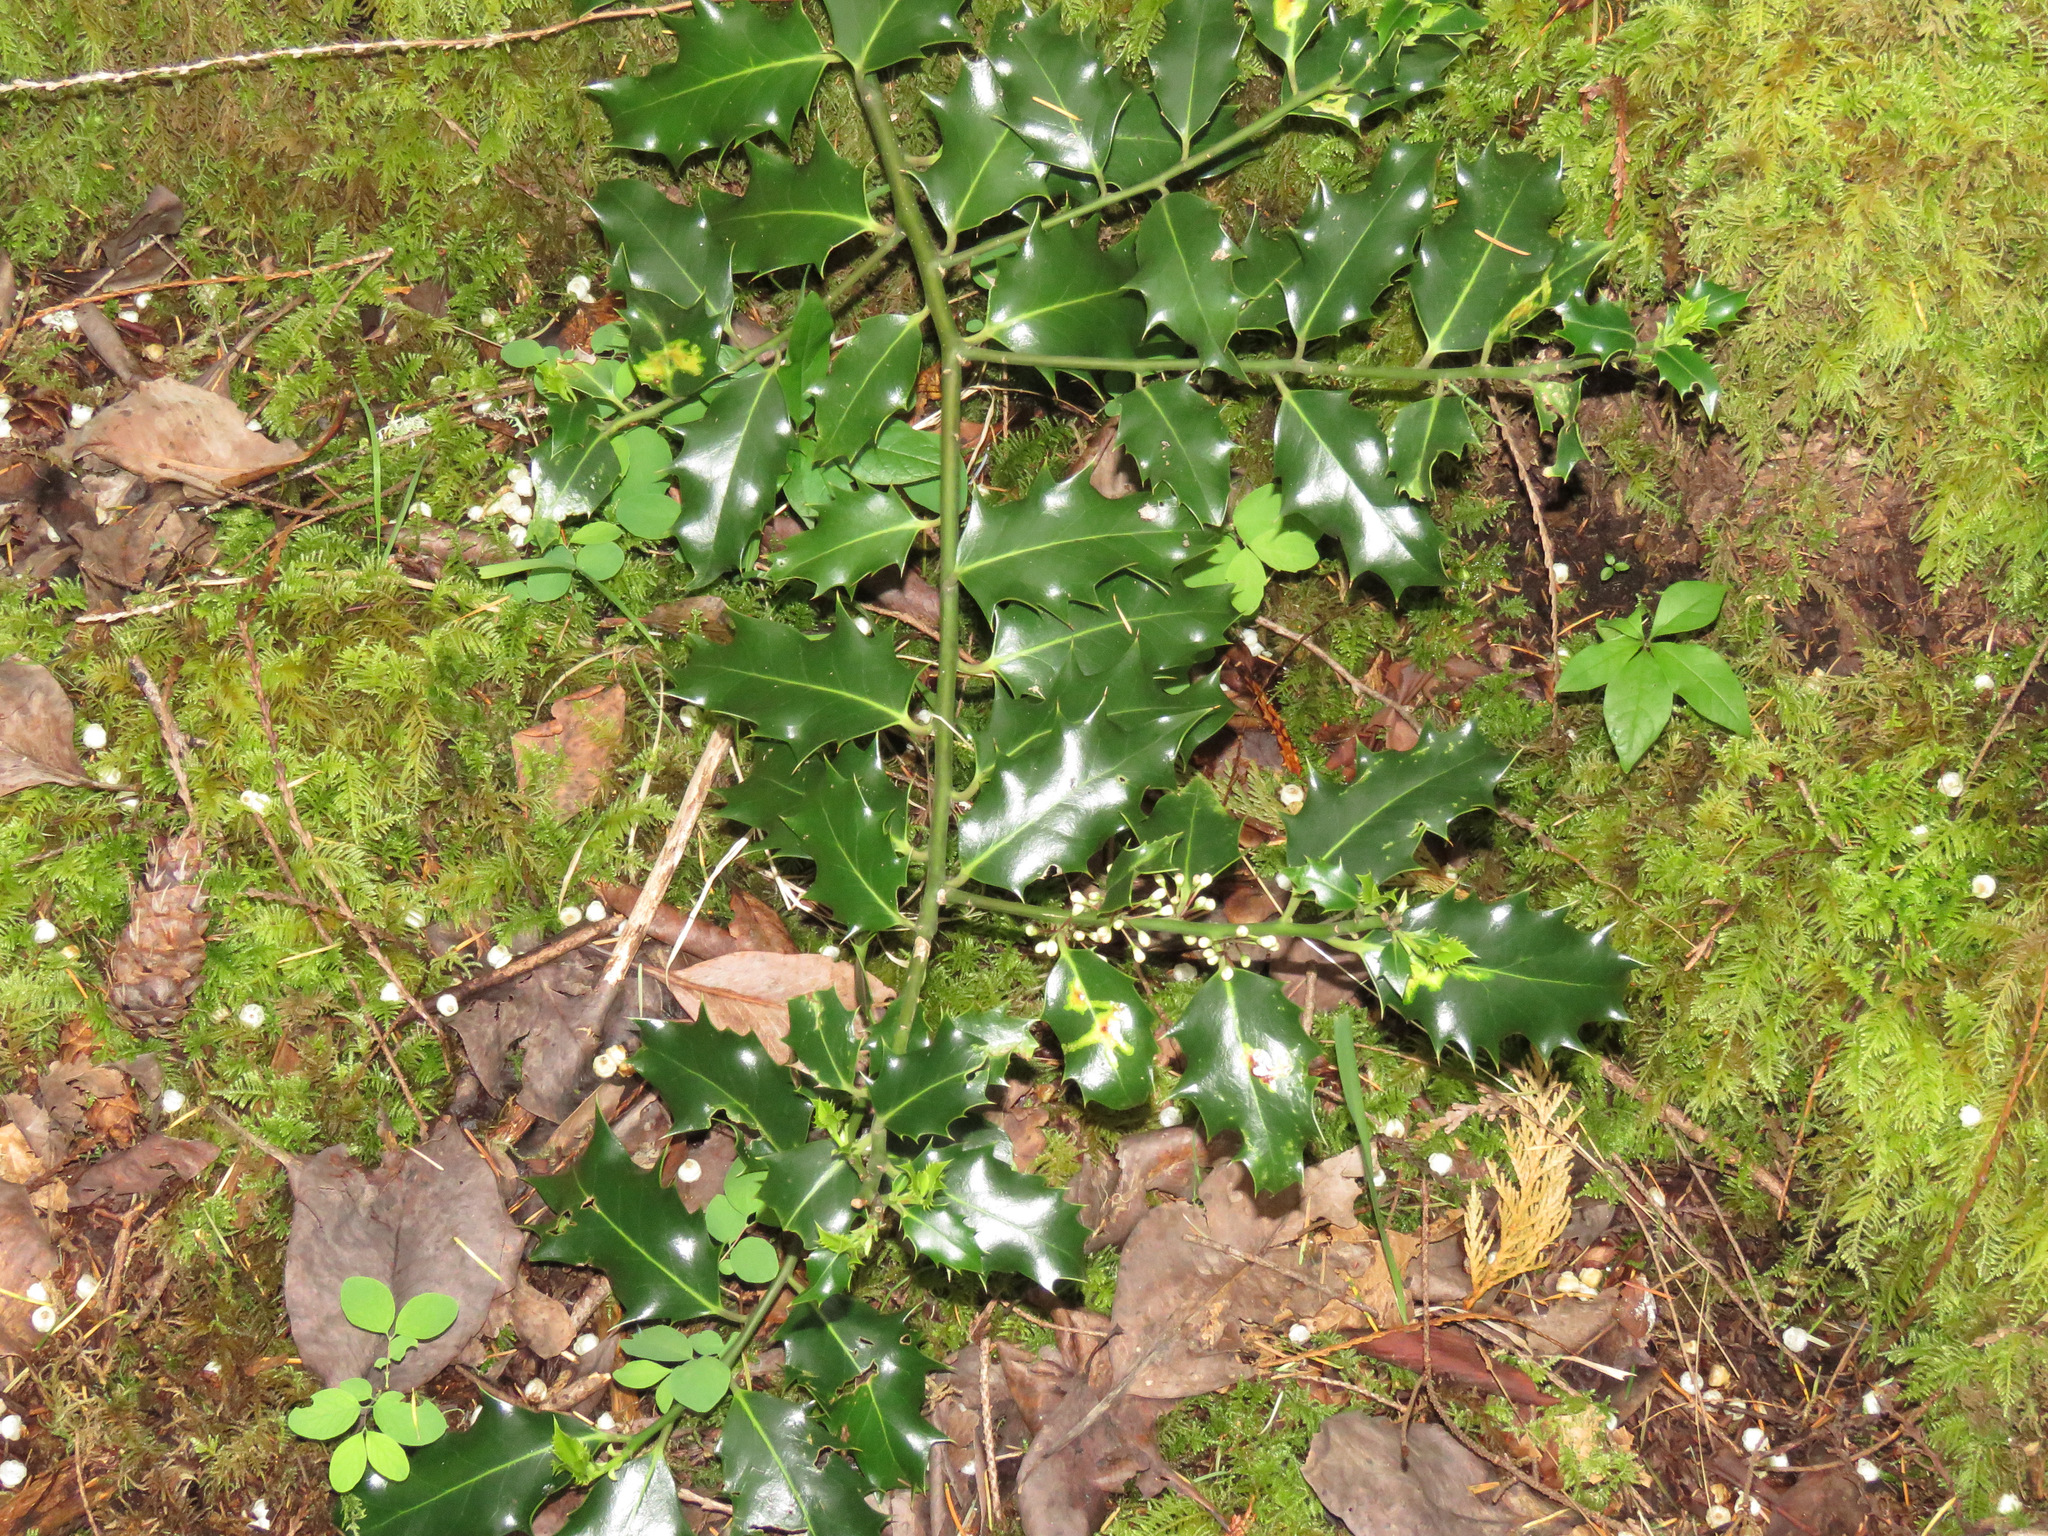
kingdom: Plantae
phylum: Tracheophyta
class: Magnoliopsida
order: Aquifoliales
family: Aquifoliaceae
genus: Ilex
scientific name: Ilex aquifolium
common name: English holly
